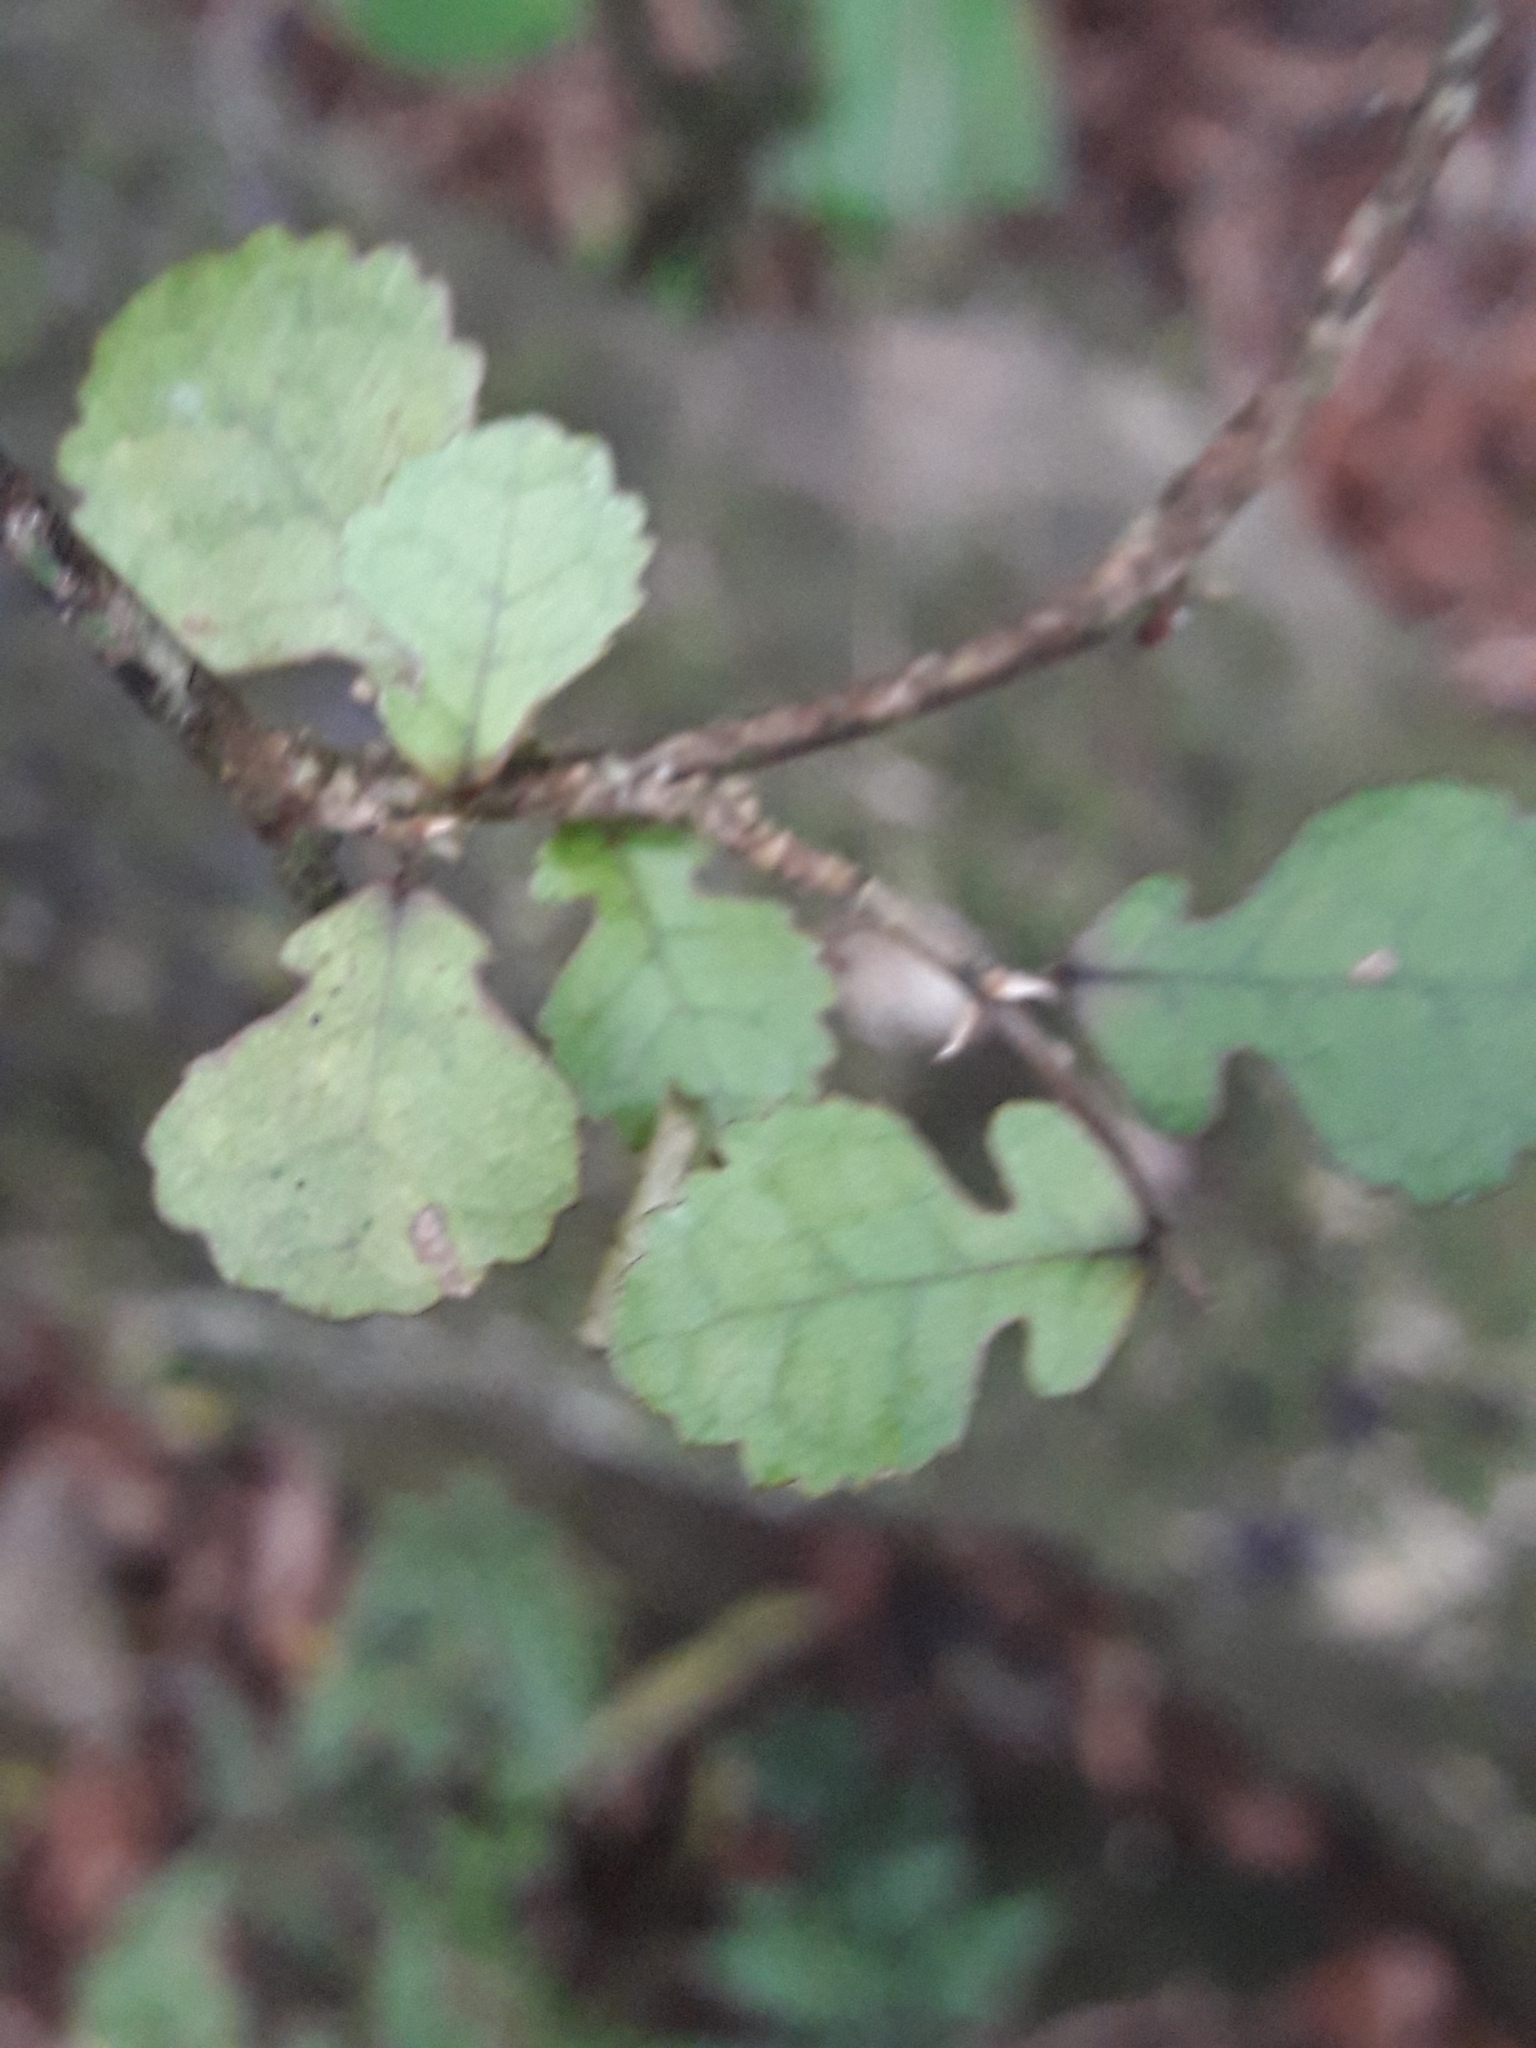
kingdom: Plantae
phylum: Tracheophyta
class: Magnoliopsida
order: Rosales
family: Moraceae
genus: Paratrophis
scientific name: Paratrophis microphylla
